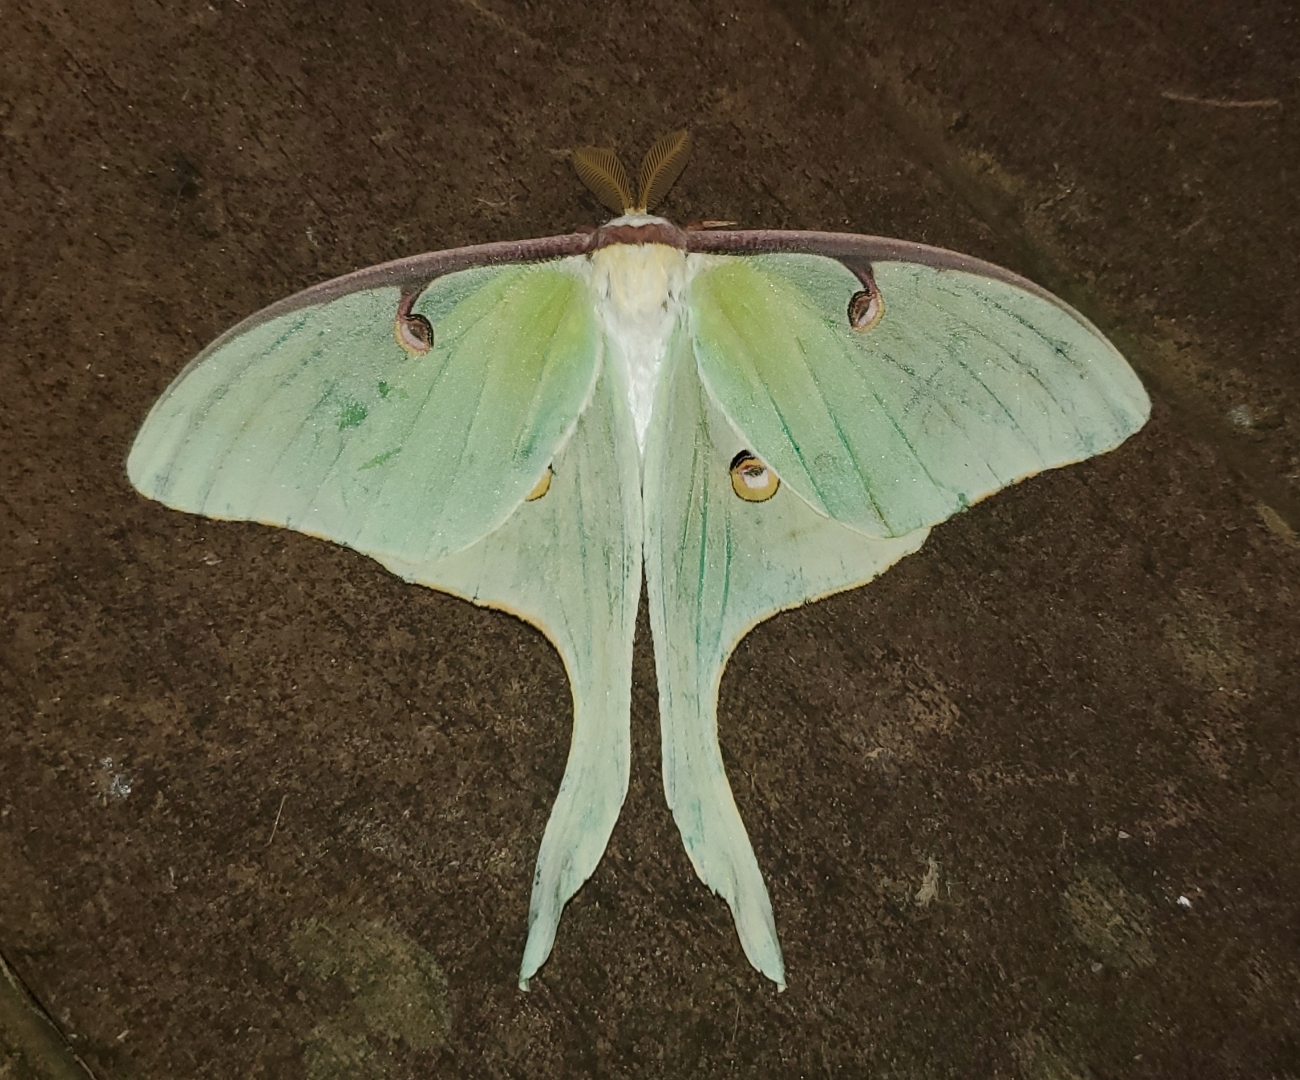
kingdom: Animalia
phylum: Arthropoda
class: Insecta
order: Lepidoptera
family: Saturniidae
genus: Actias
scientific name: Actias luna
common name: Luna moth
